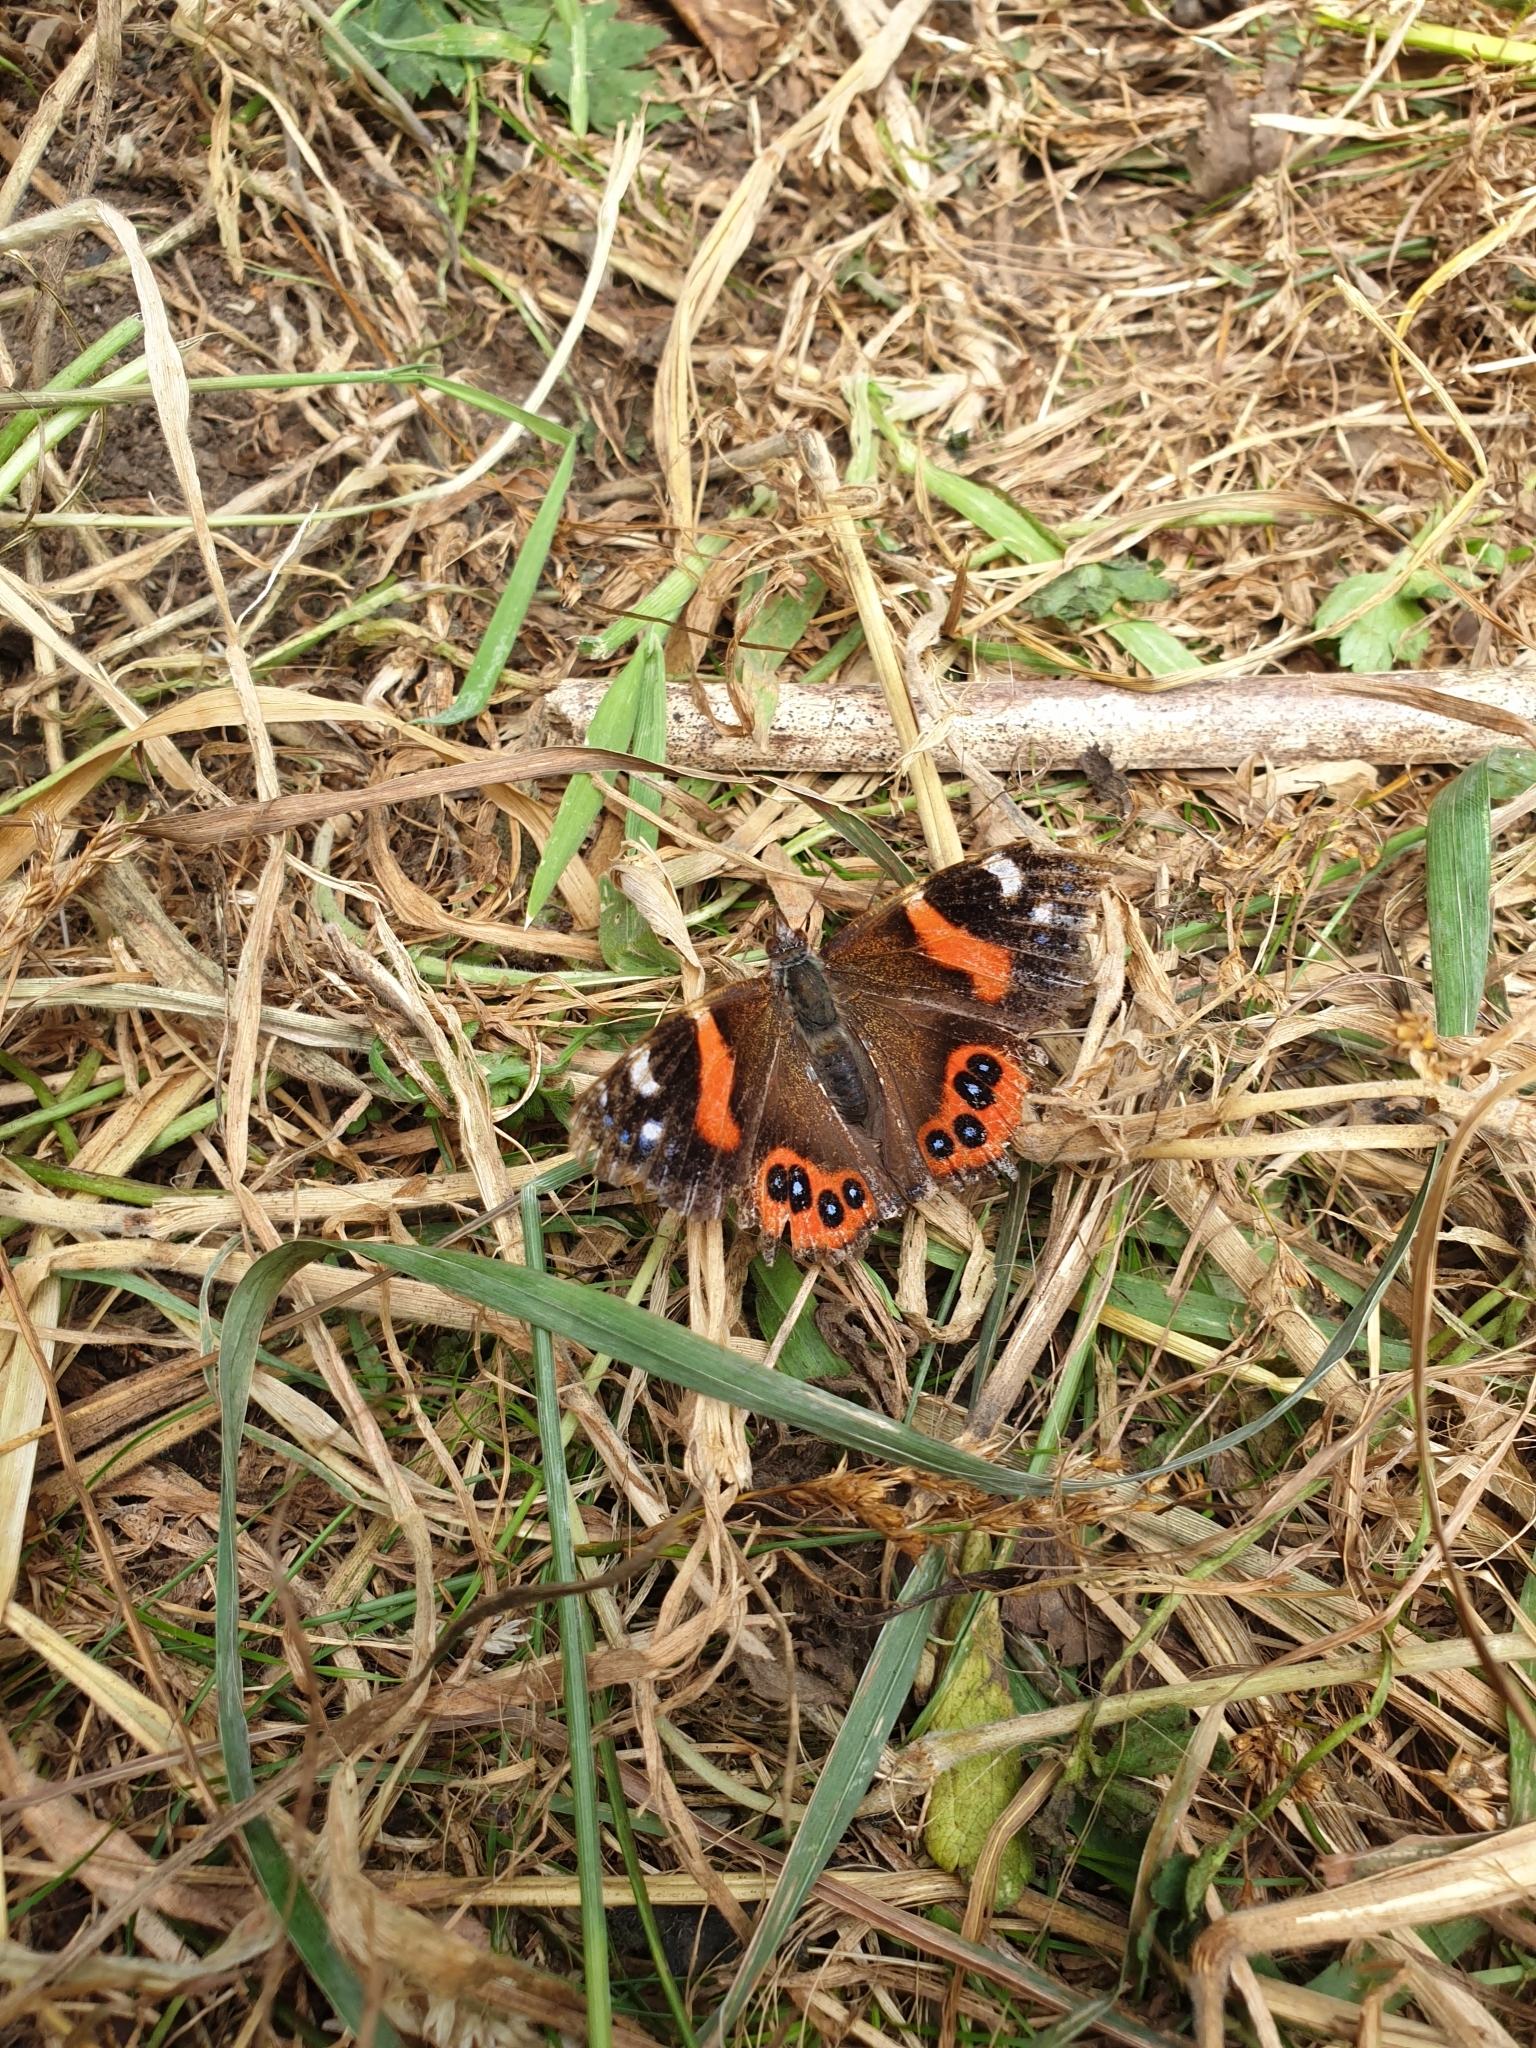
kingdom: Animalia
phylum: Arthropoda
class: Insecta
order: Lepidoptera
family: Nymphalidae
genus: Vanessa
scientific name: Vanessa gonerilla
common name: New zealand red admiral
